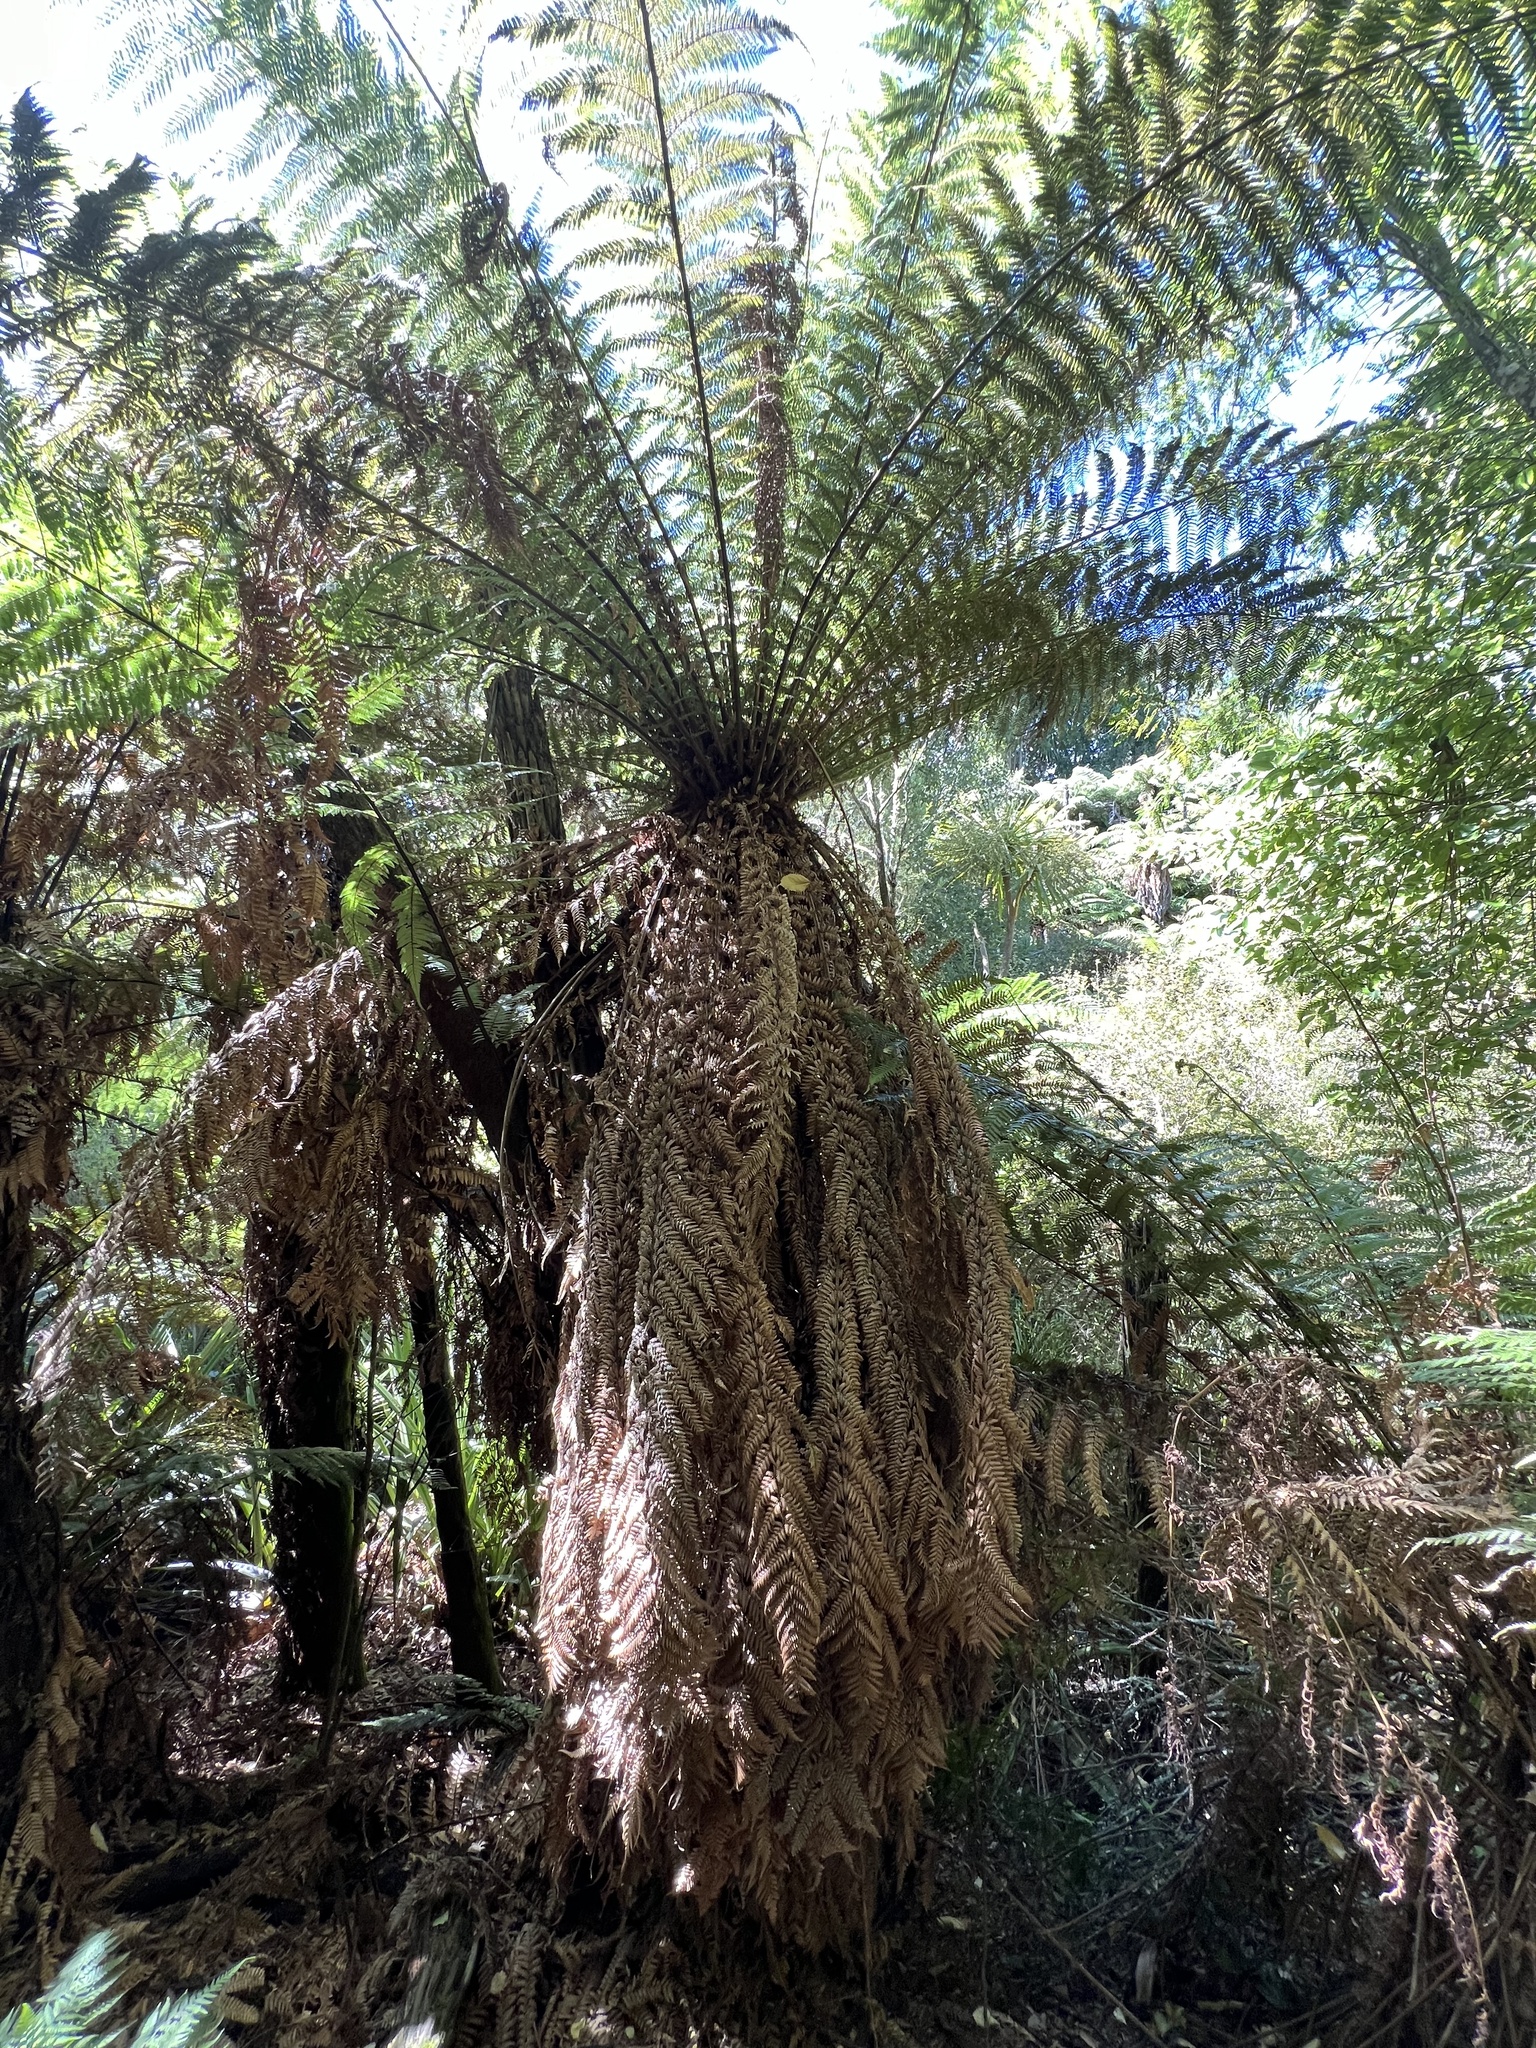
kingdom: Plantae
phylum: Tracheophyta
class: Polypodiopsida
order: Cyatheales
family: Dicksoniaceae
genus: Dicksonia
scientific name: Dicksonia fibrosa
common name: Golden tree fern
